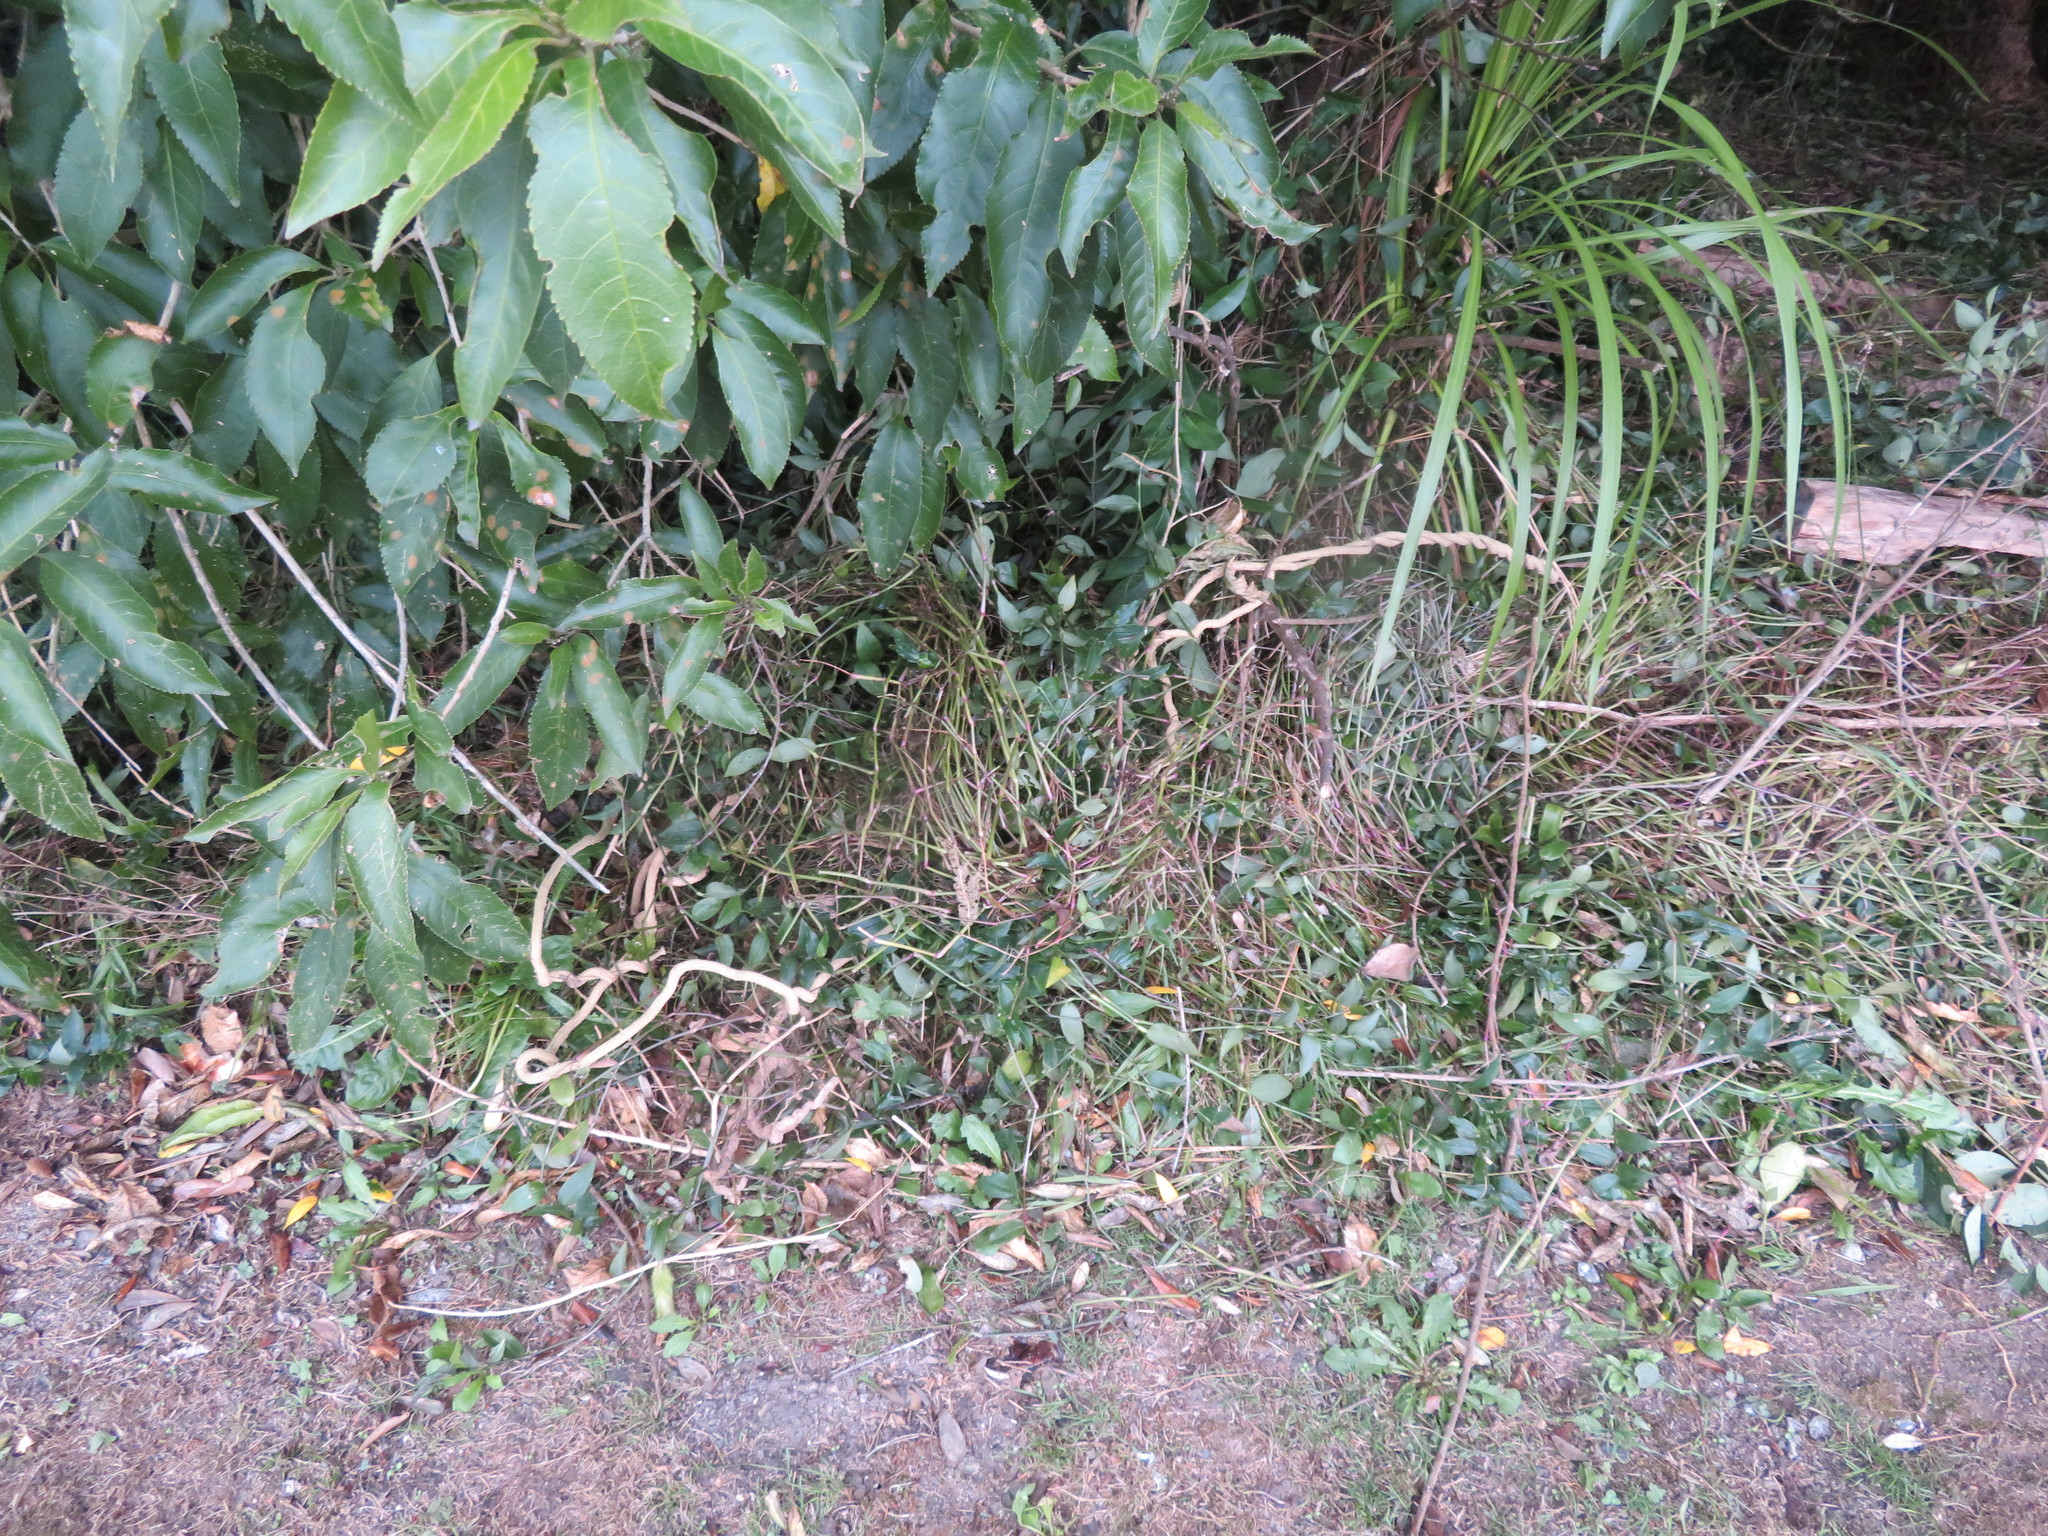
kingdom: Plantae
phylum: Tracheophyta
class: Magnoliopsida
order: Malpighiales
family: Violaceae
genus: Melicytus
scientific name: Melicytus ramiflorus
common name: Mahoe
